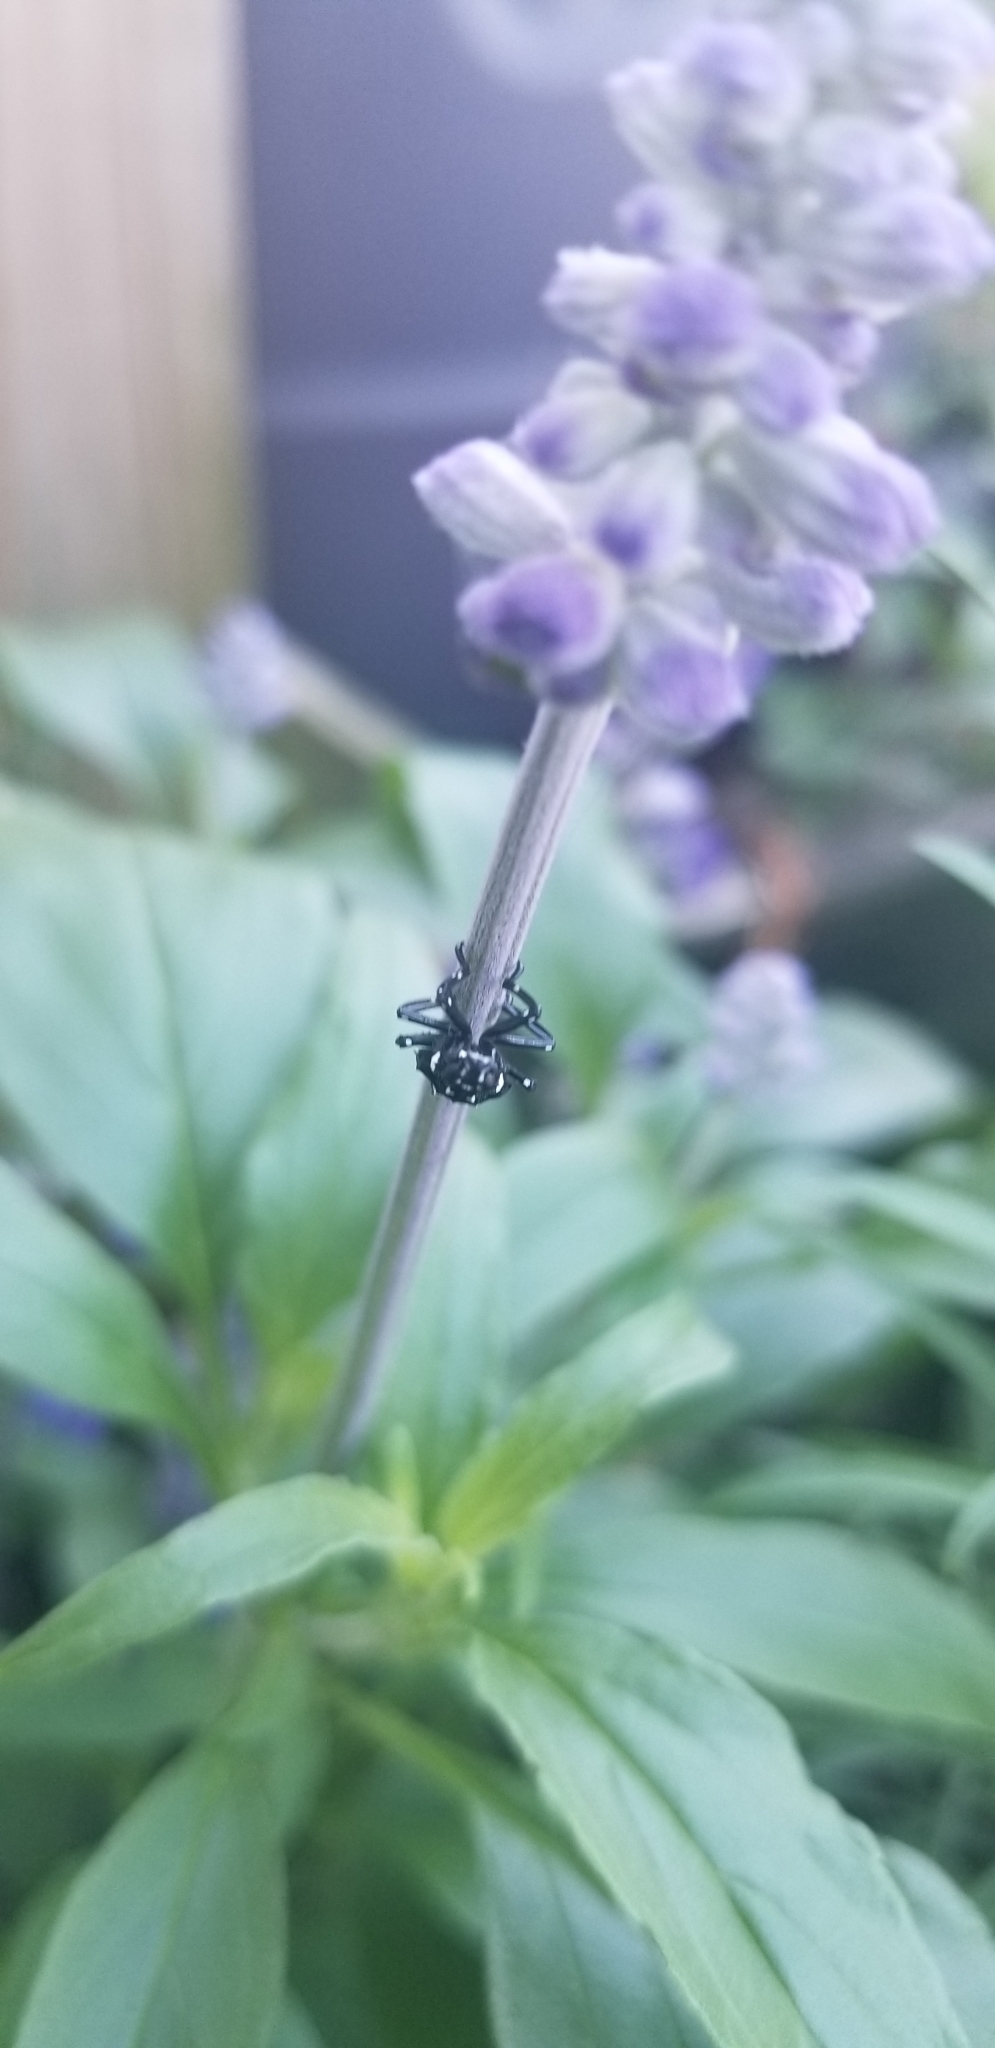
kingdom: Animalia
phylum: Arthropoda
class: Insecta
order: Hemiptera
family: Fulgoridae
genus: Lycorma
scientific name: Lycorma delicatula
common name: Spotted lanternfly
